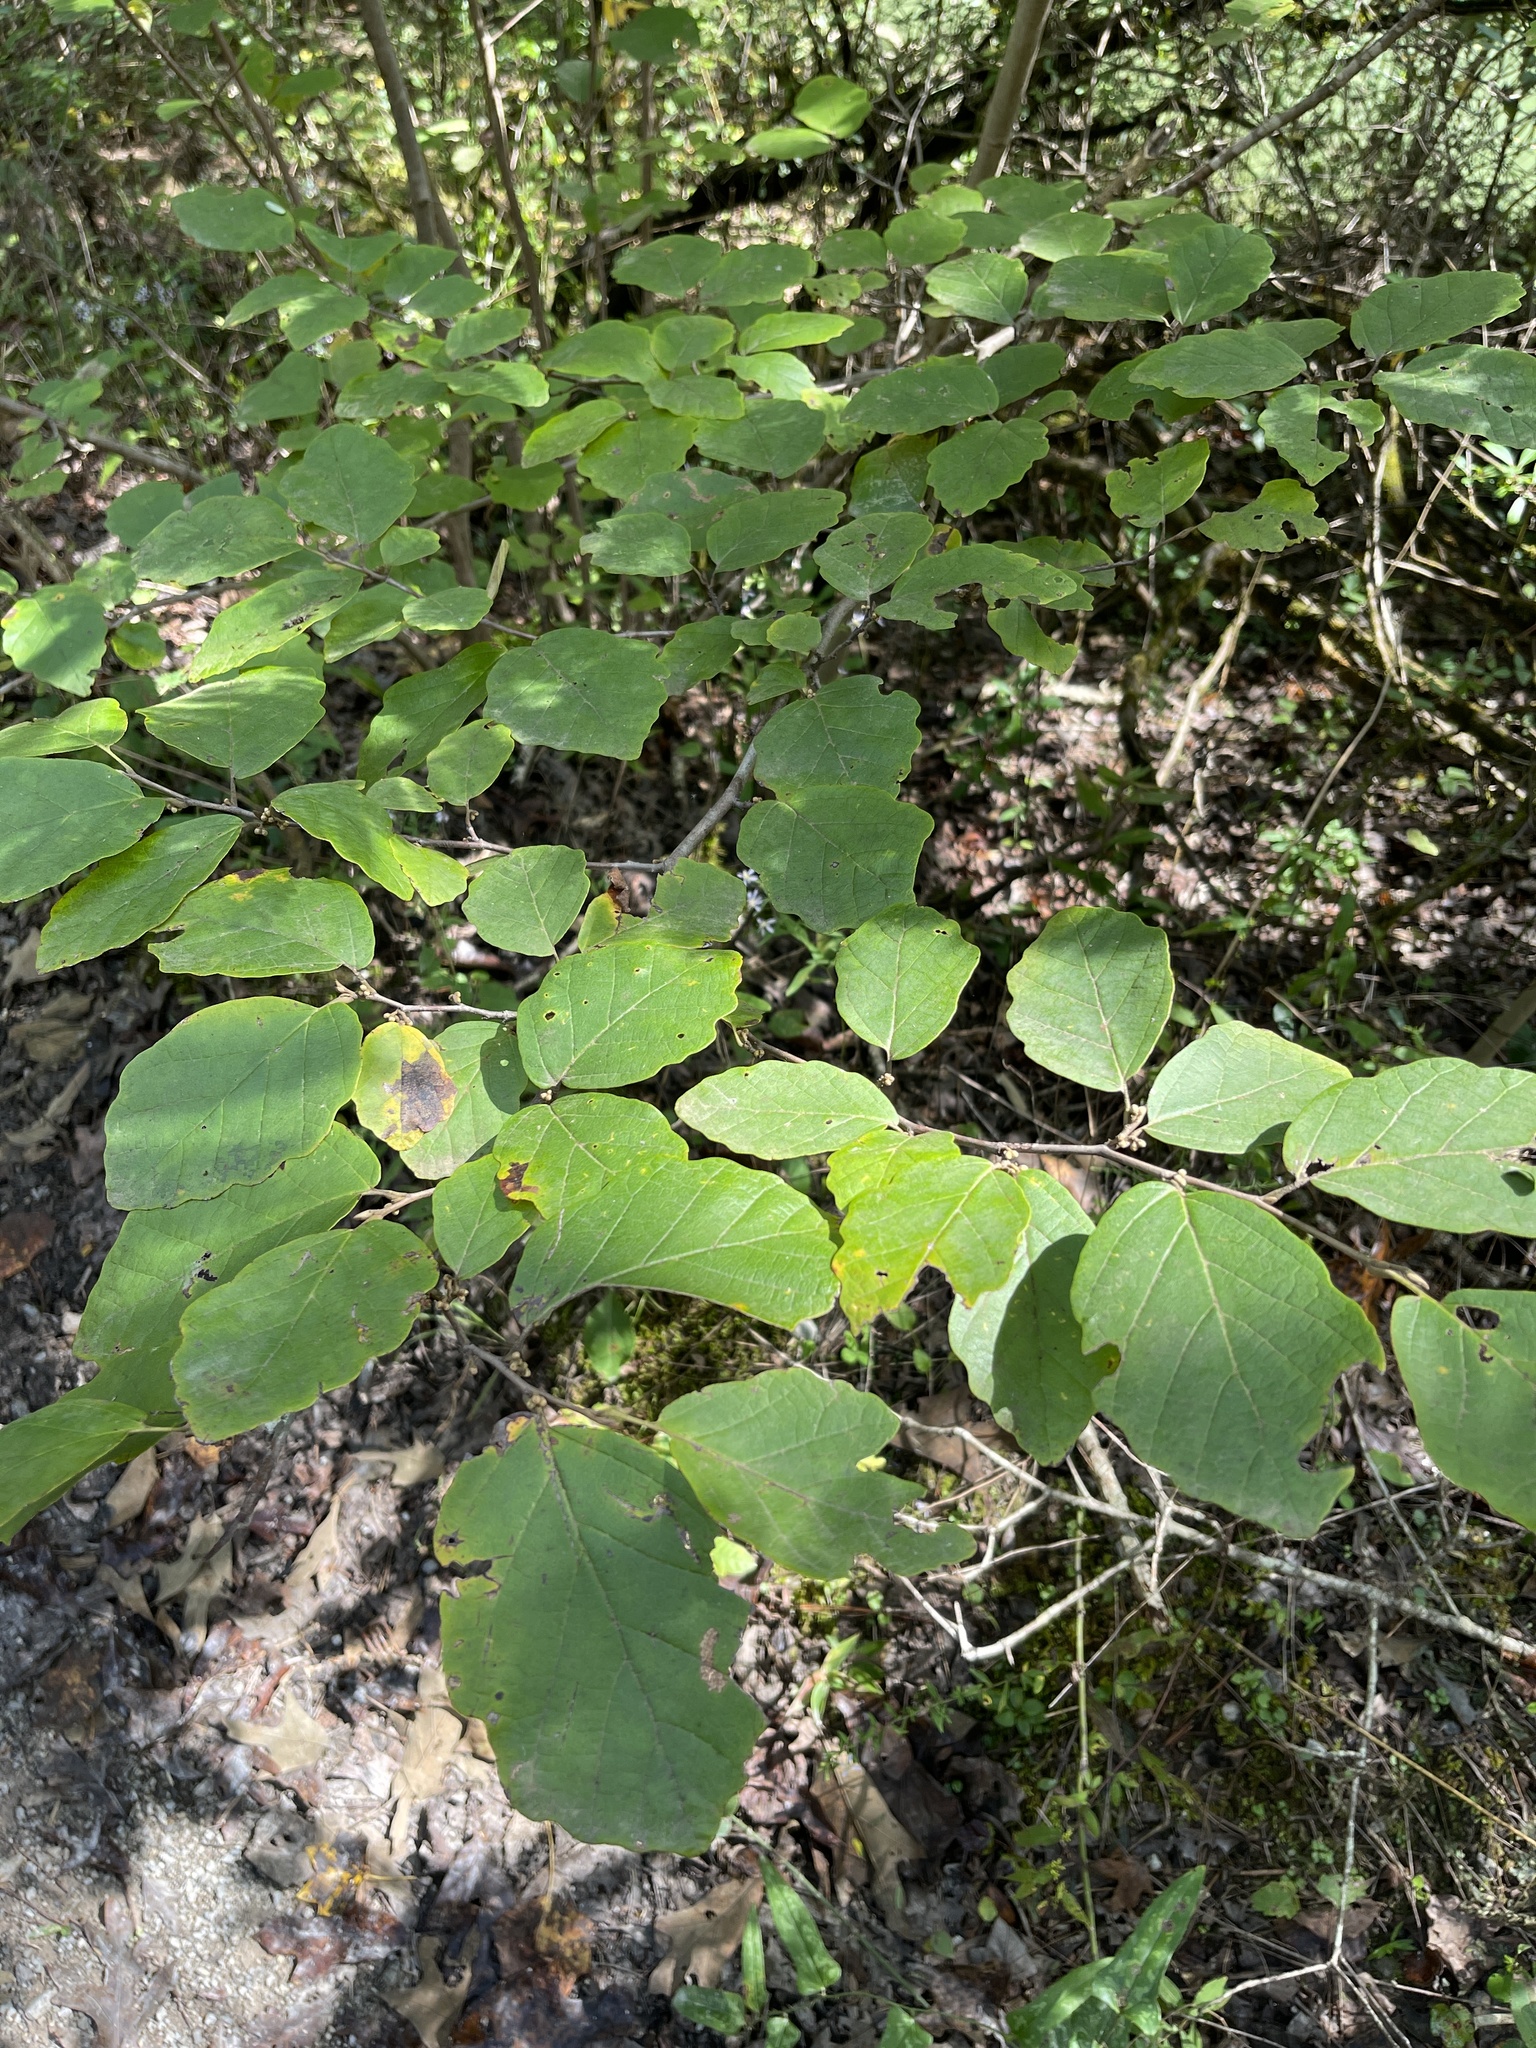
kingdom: Plantae
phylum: Tracheophyta
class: Magnoliopsida
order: Saxifragales
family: Hamamelidaceae
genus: Hamamelis
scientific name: Hamamelis virginiana
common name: Witch-hazel
